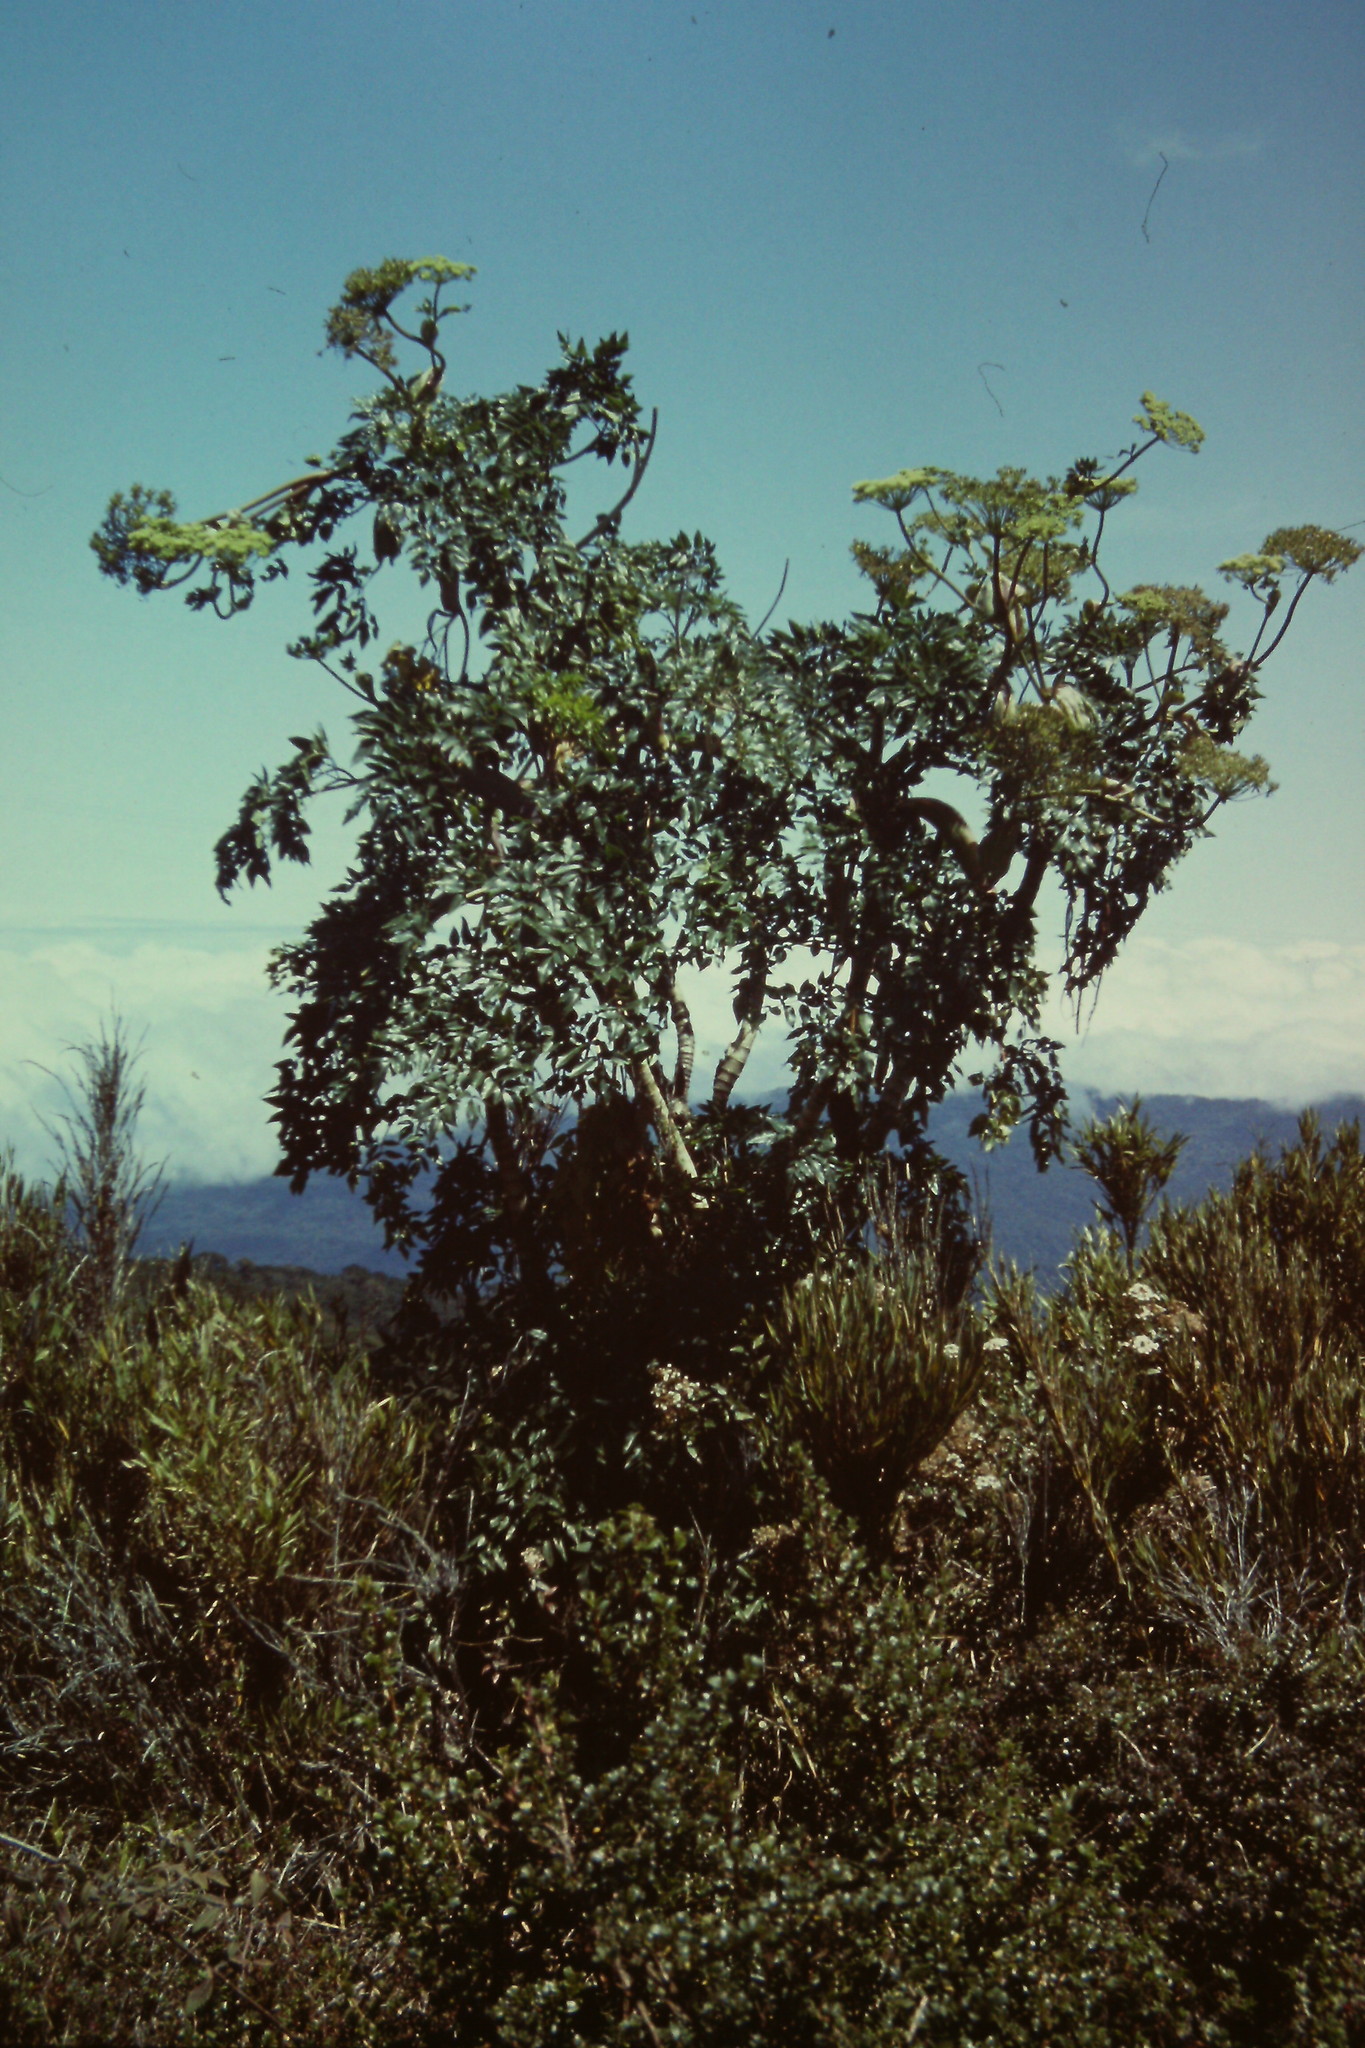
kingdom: Plantae
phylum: Tracheophyta
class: Magnoliopsida
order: Apiales
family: Apiaceae
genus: Myrrhidendron
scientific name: Myrrhidendron donnellsmithii
